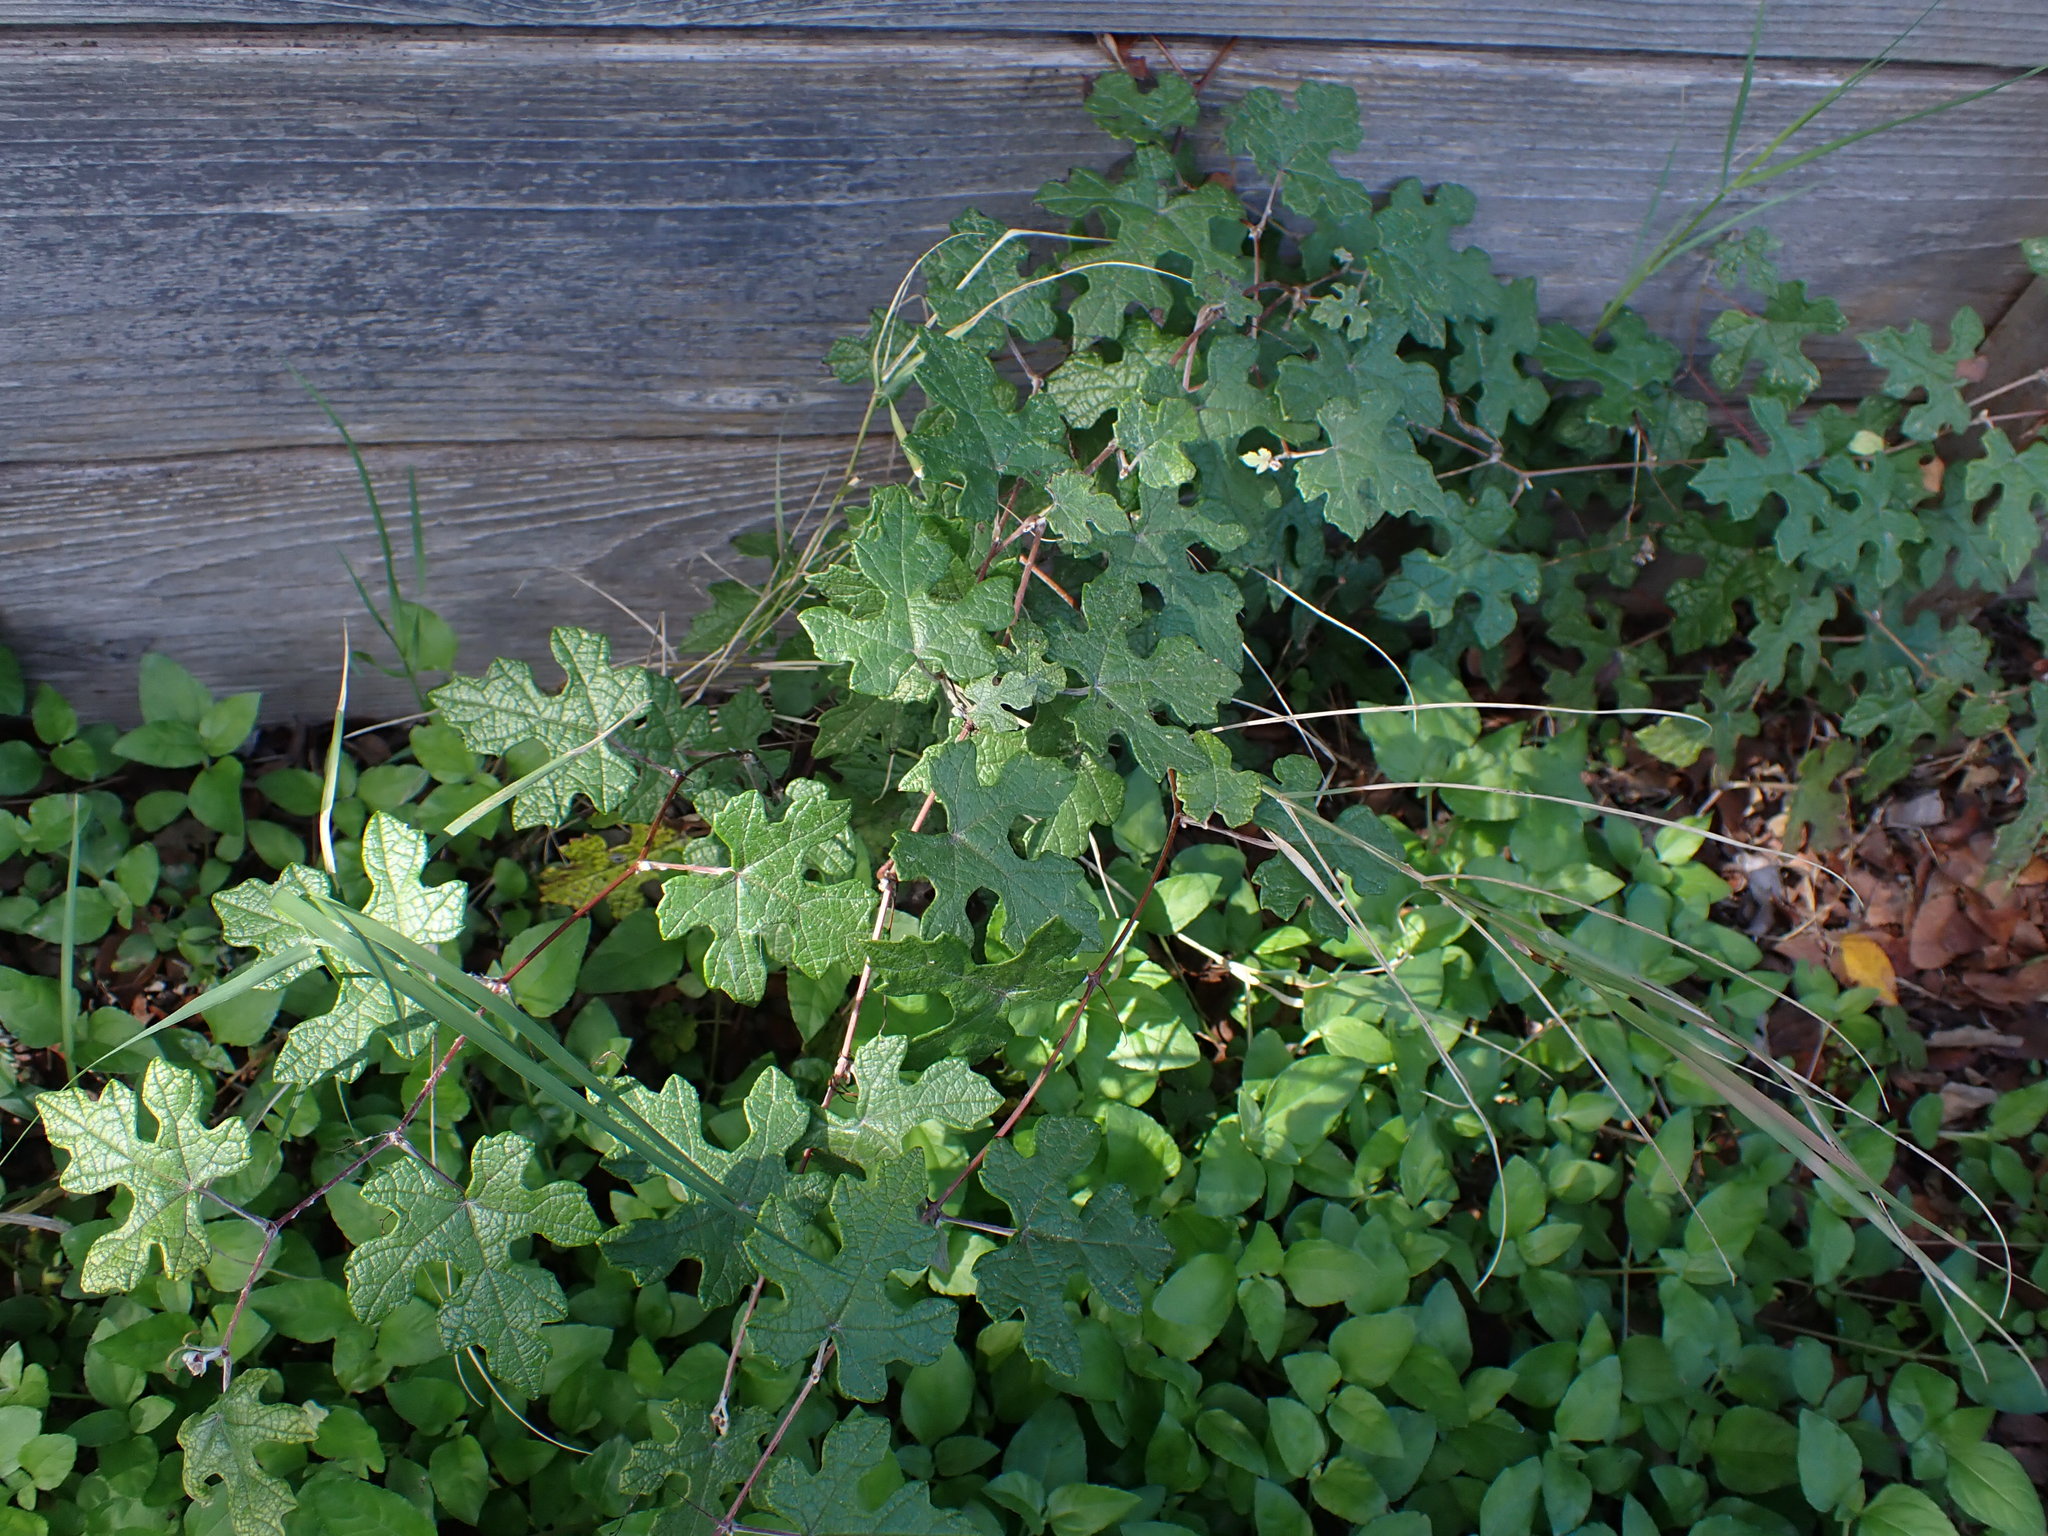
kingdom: Plantae
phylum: Tracheophyta
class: Magnoliopsida
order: Vitales
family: Vitaceae
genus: Vitis
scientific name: Vitis mustangensis
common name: Mustang grape
